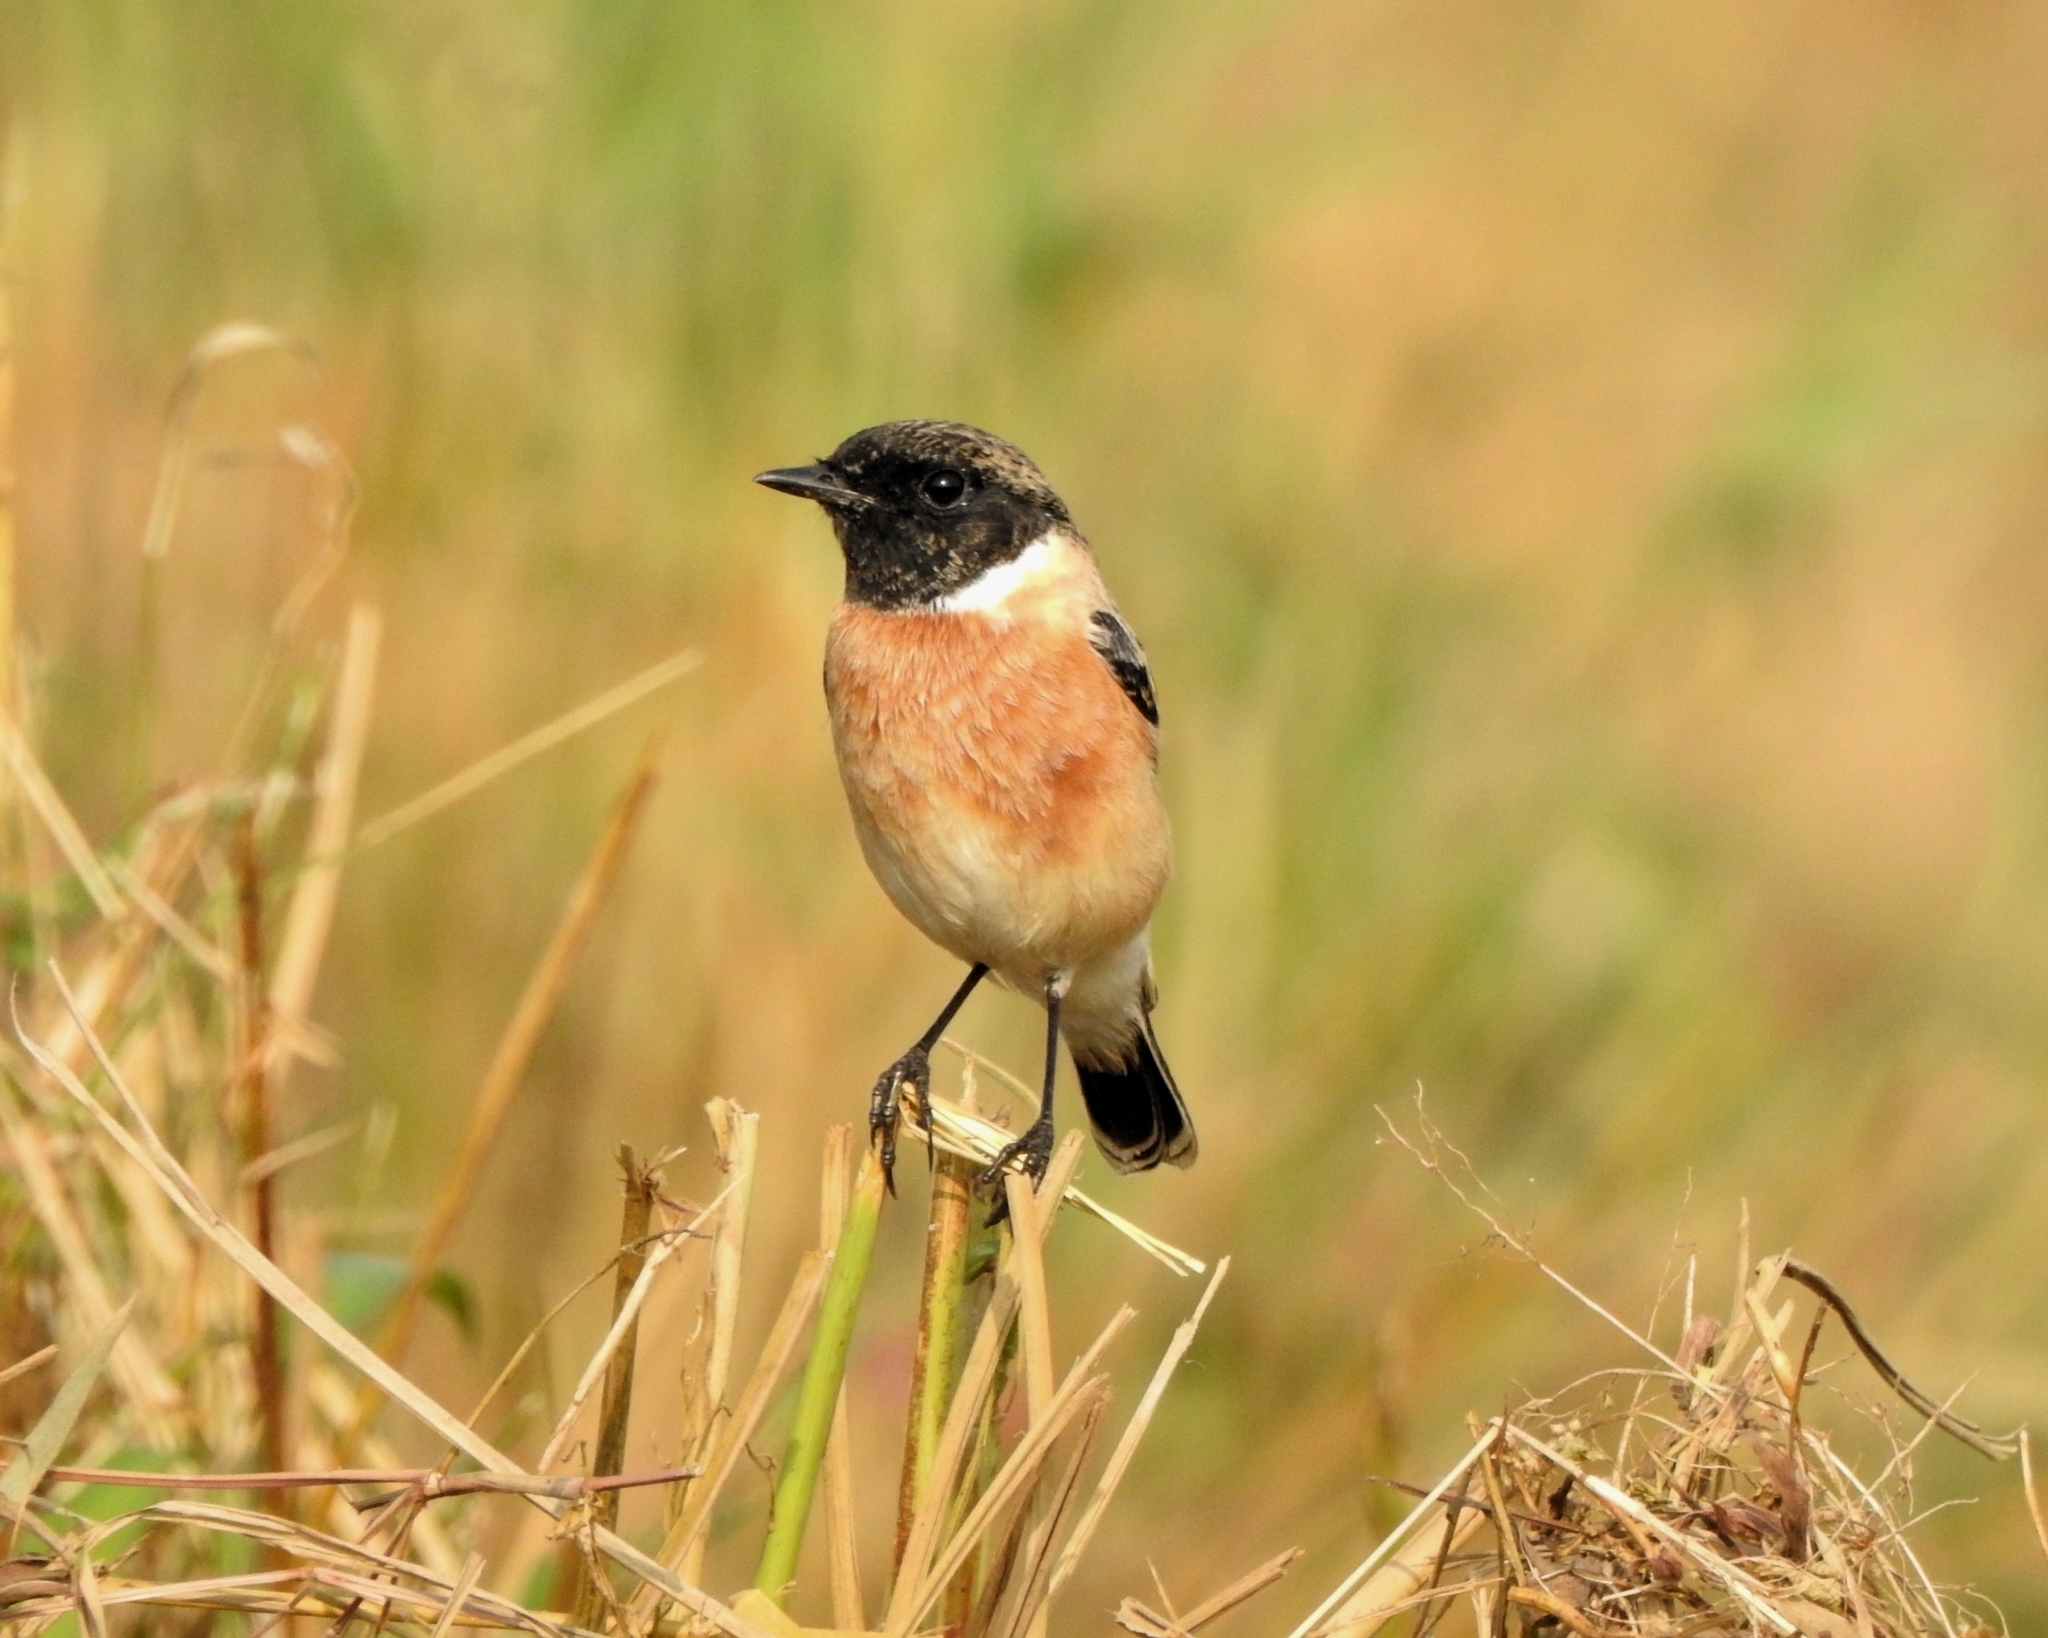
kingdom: Animalia
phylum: Chordata
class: Aves
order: Passeriformes
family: Muscicapidae
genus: Saxicola
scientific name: Saxicola maurus
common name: Siberian stonechat
